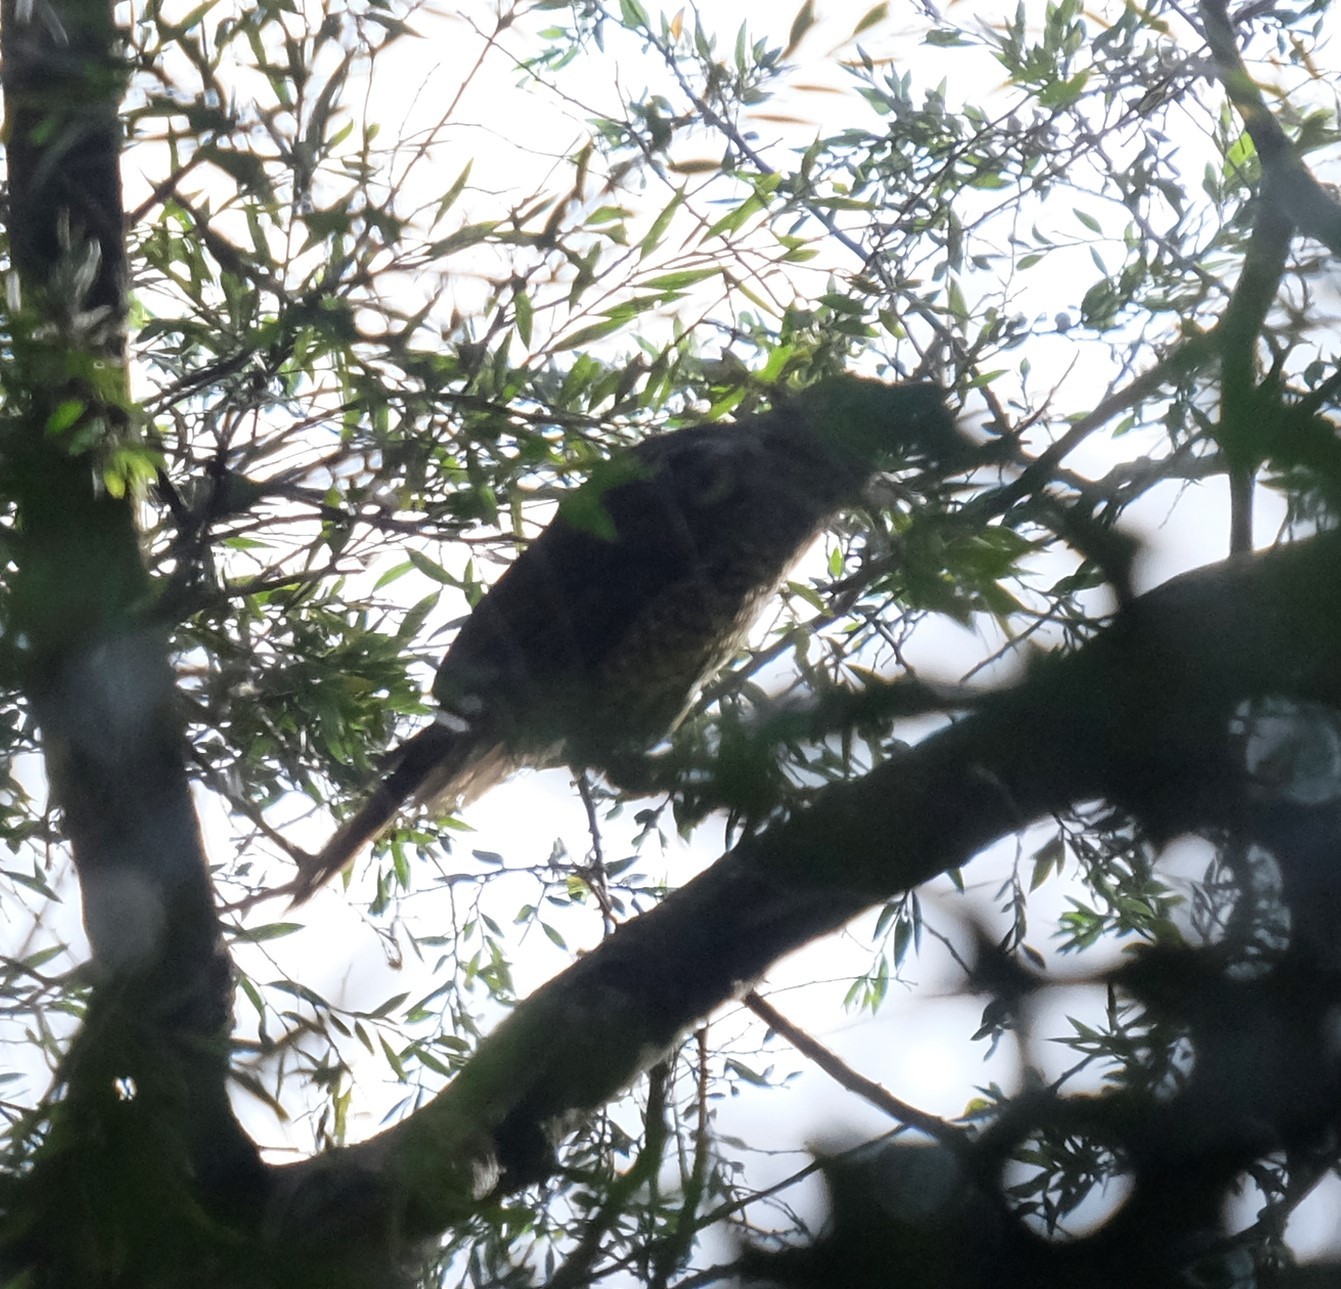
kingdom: Animalia
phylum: Chordata
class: Aves
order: Passeriformes
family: Ptilonorhynchidae
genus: Ptilonorhynchus
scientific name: Ptilonorhynchus violaceus
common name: Satin bowerbird
